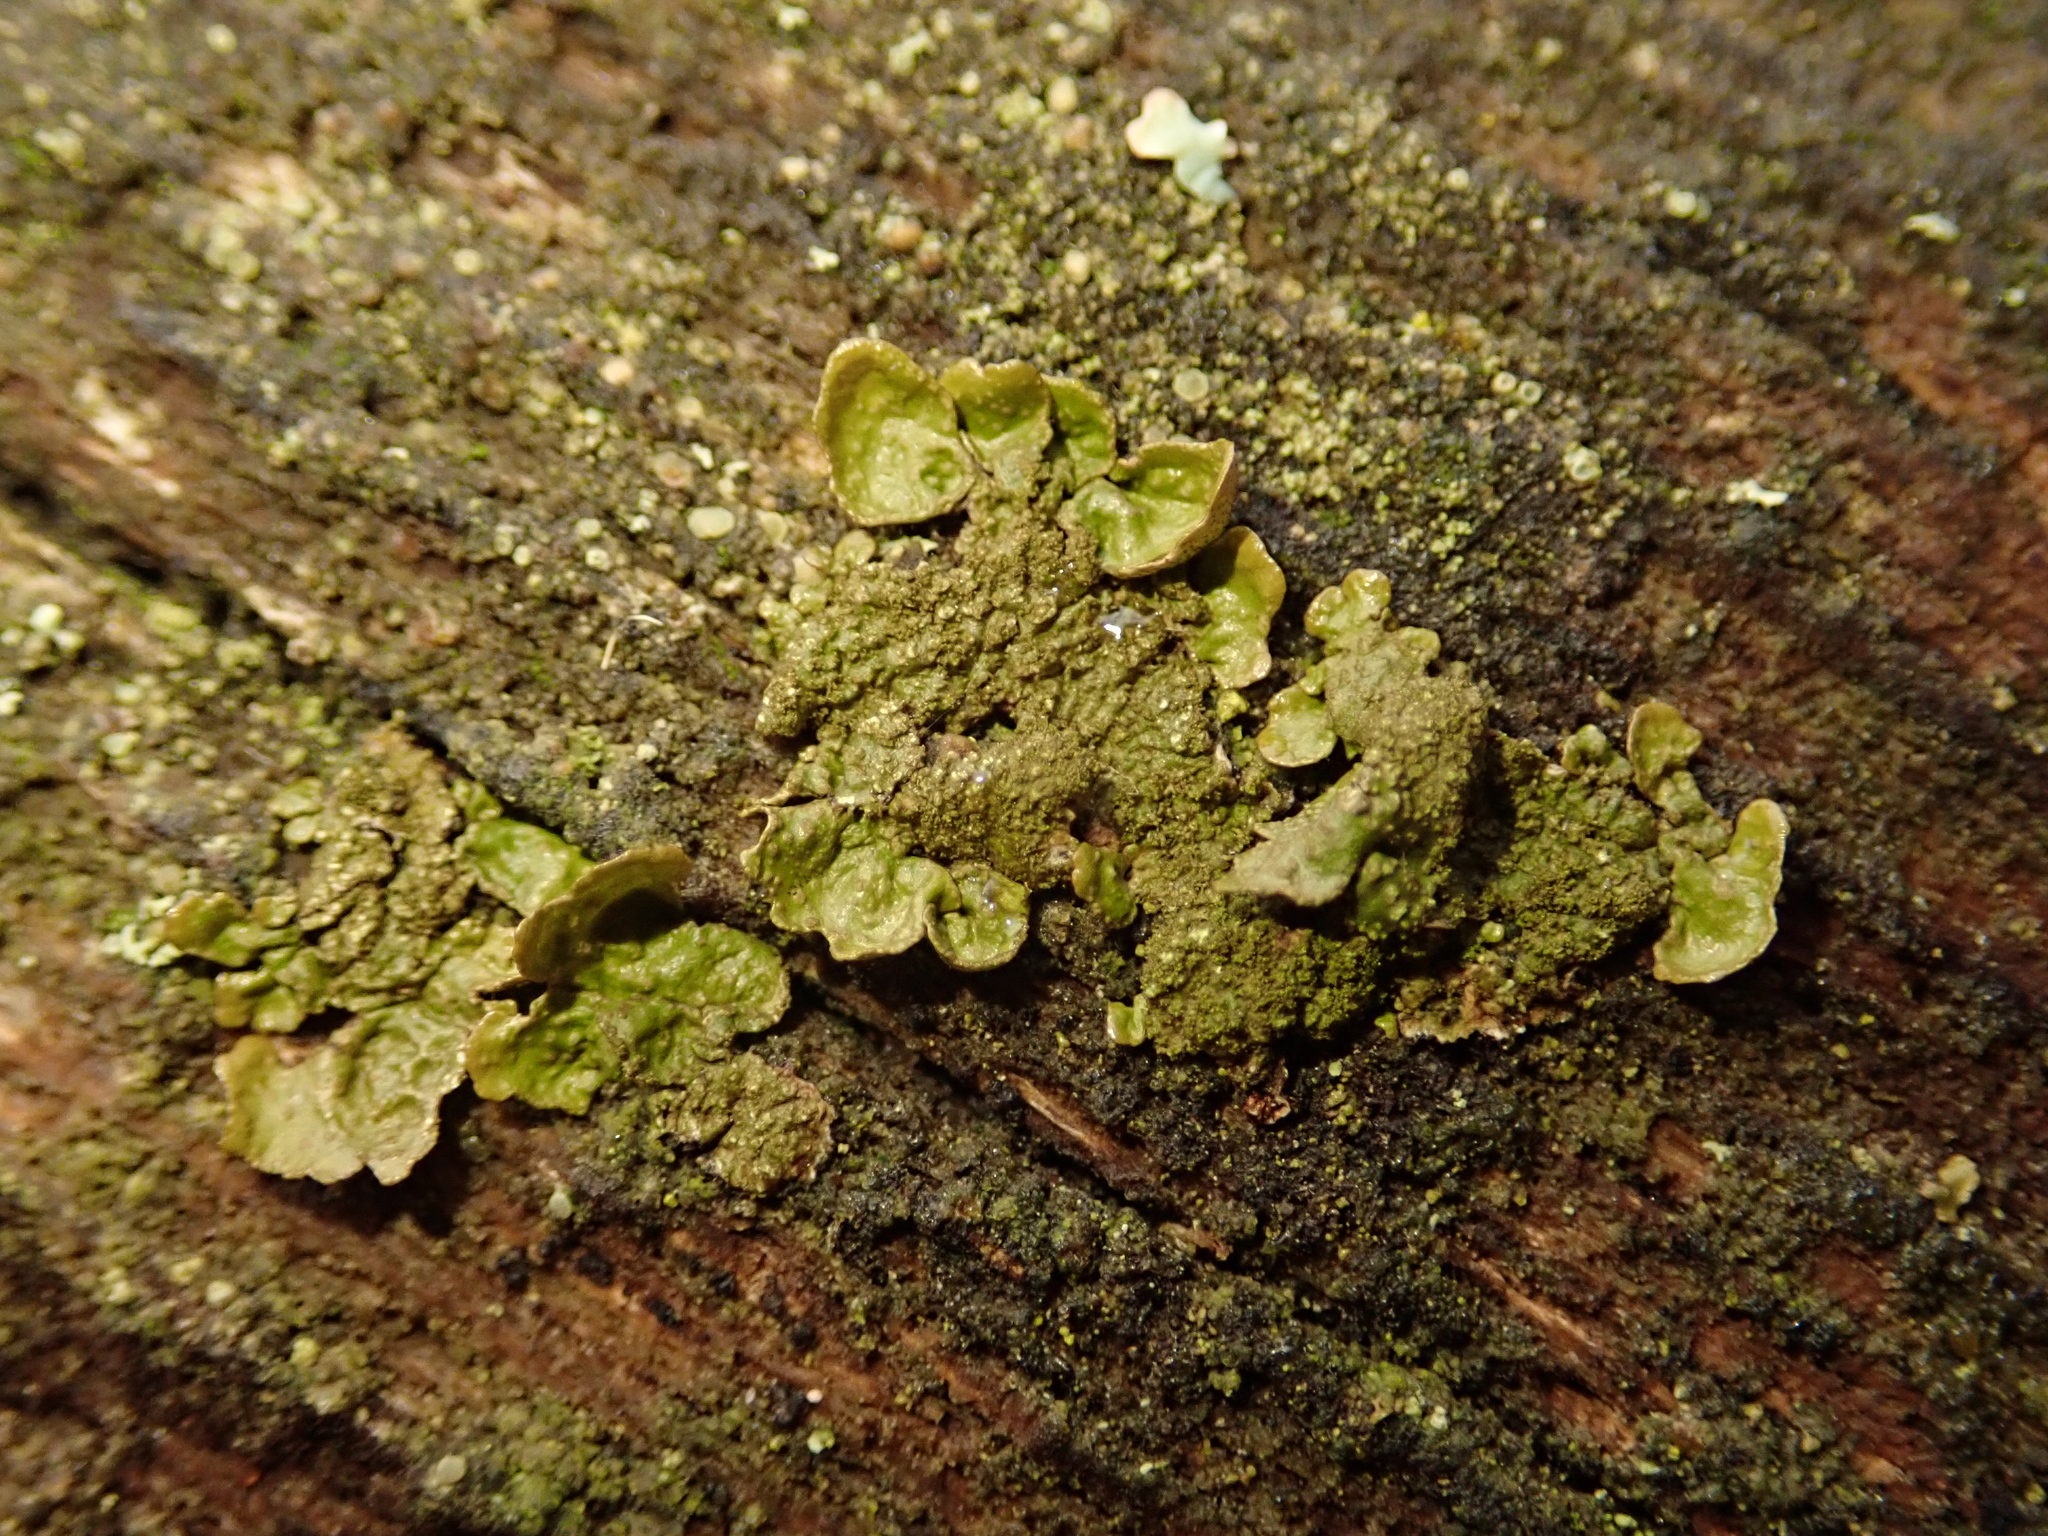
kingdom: Fungi
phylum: Ascomycota
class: Lecanoromycetes
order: Lecanorales
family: Parmeliaceae
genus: Melanelixia
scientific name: Melanelixia subaurifera
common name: Abraded camouflage lichen
